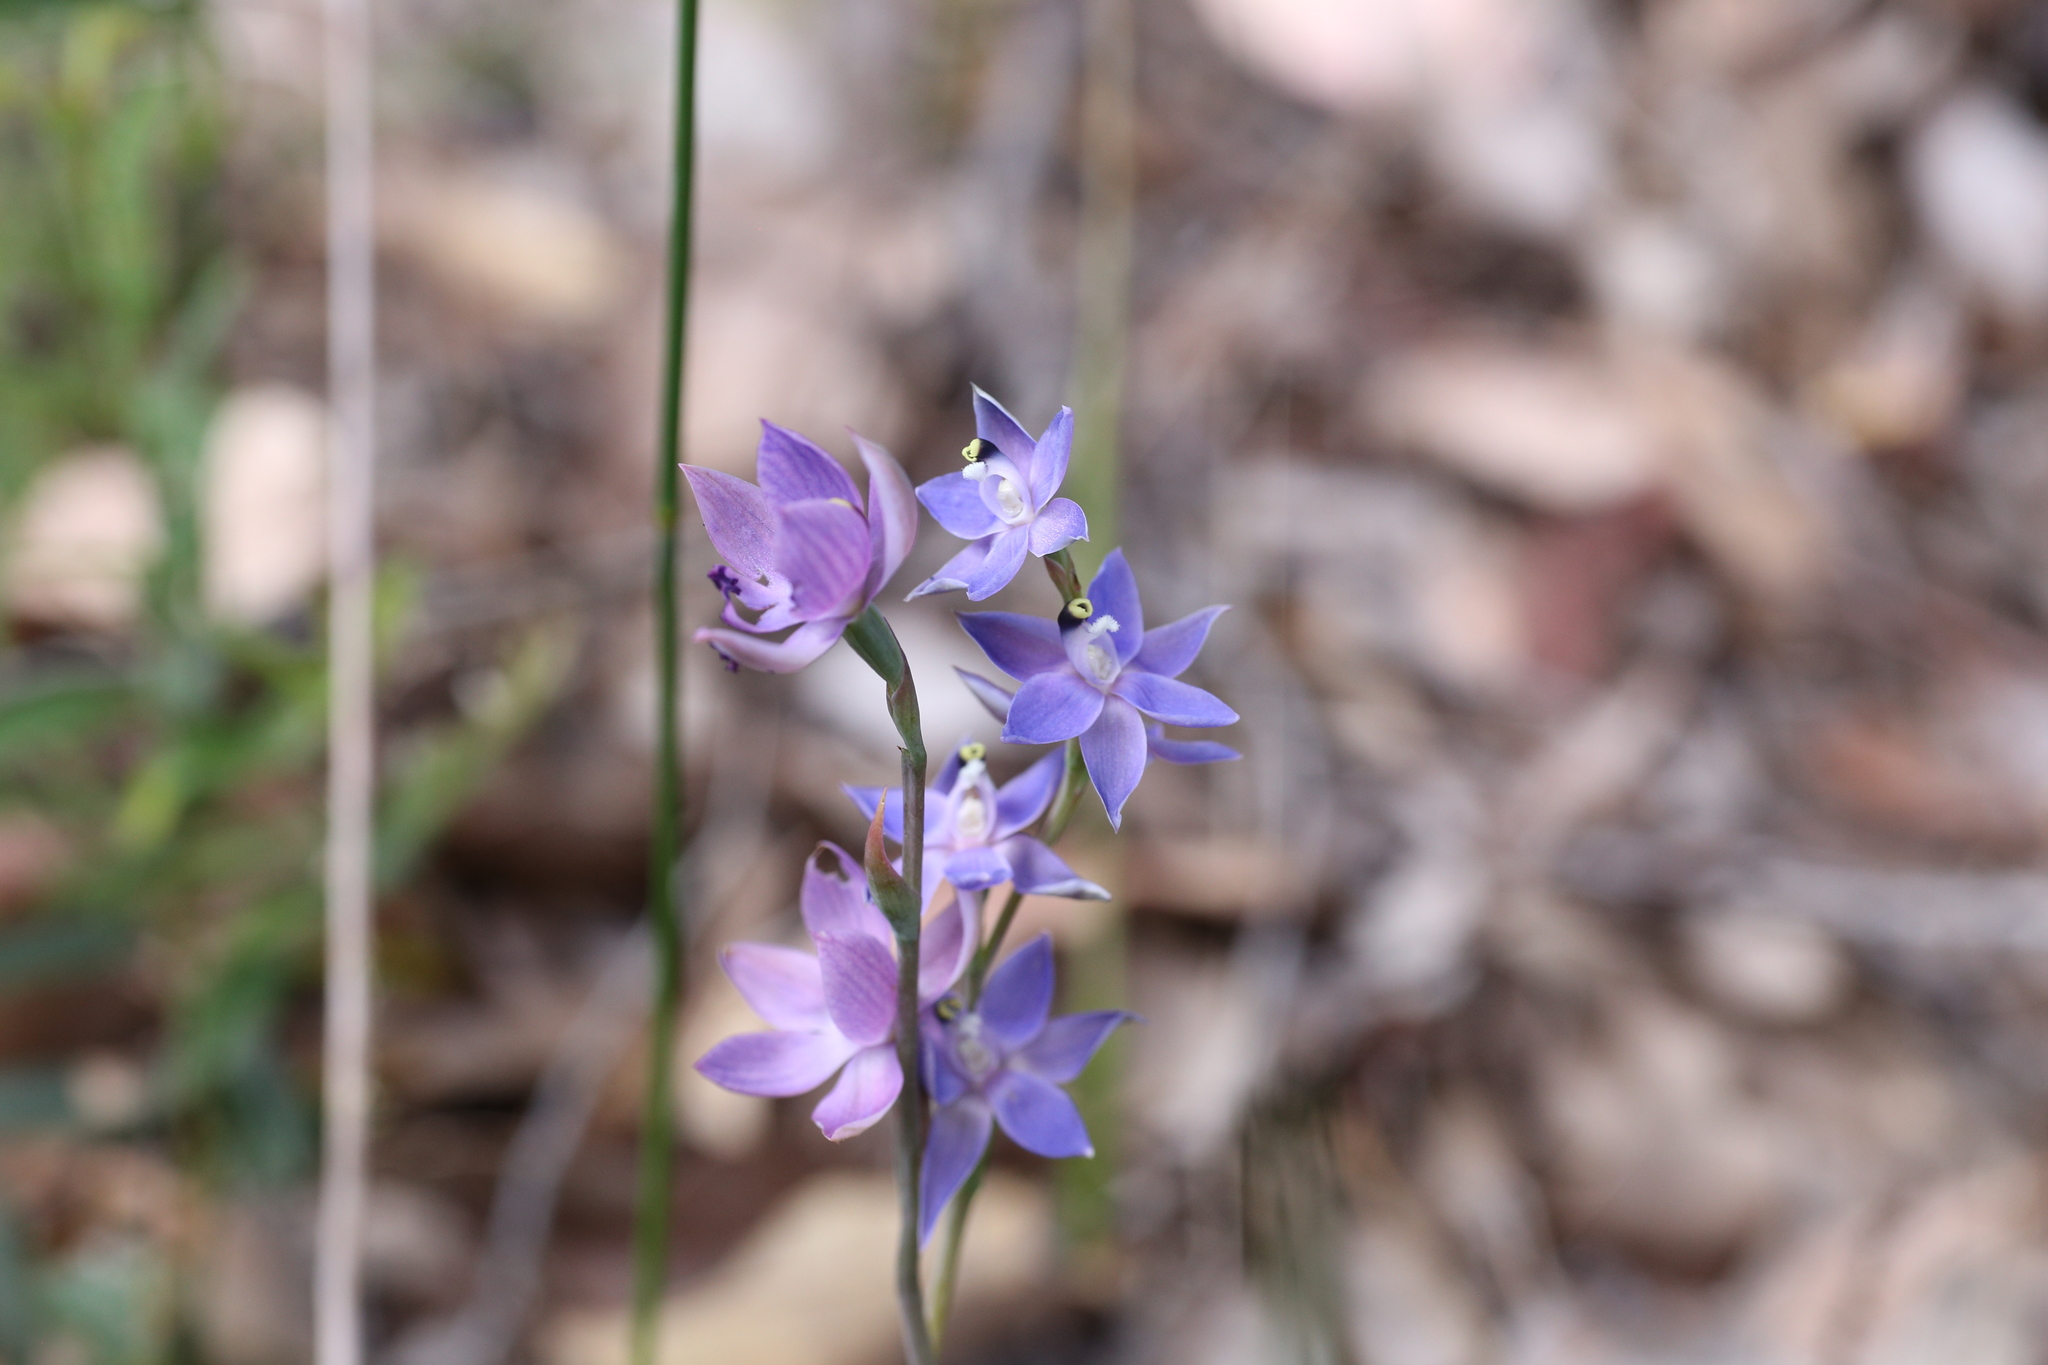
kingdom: Plantae
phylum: Tracheophyta
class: Liliopsida
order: Asparagales
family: Orchidaceae
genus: Thelymitra
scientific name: Thelymitra graminea
